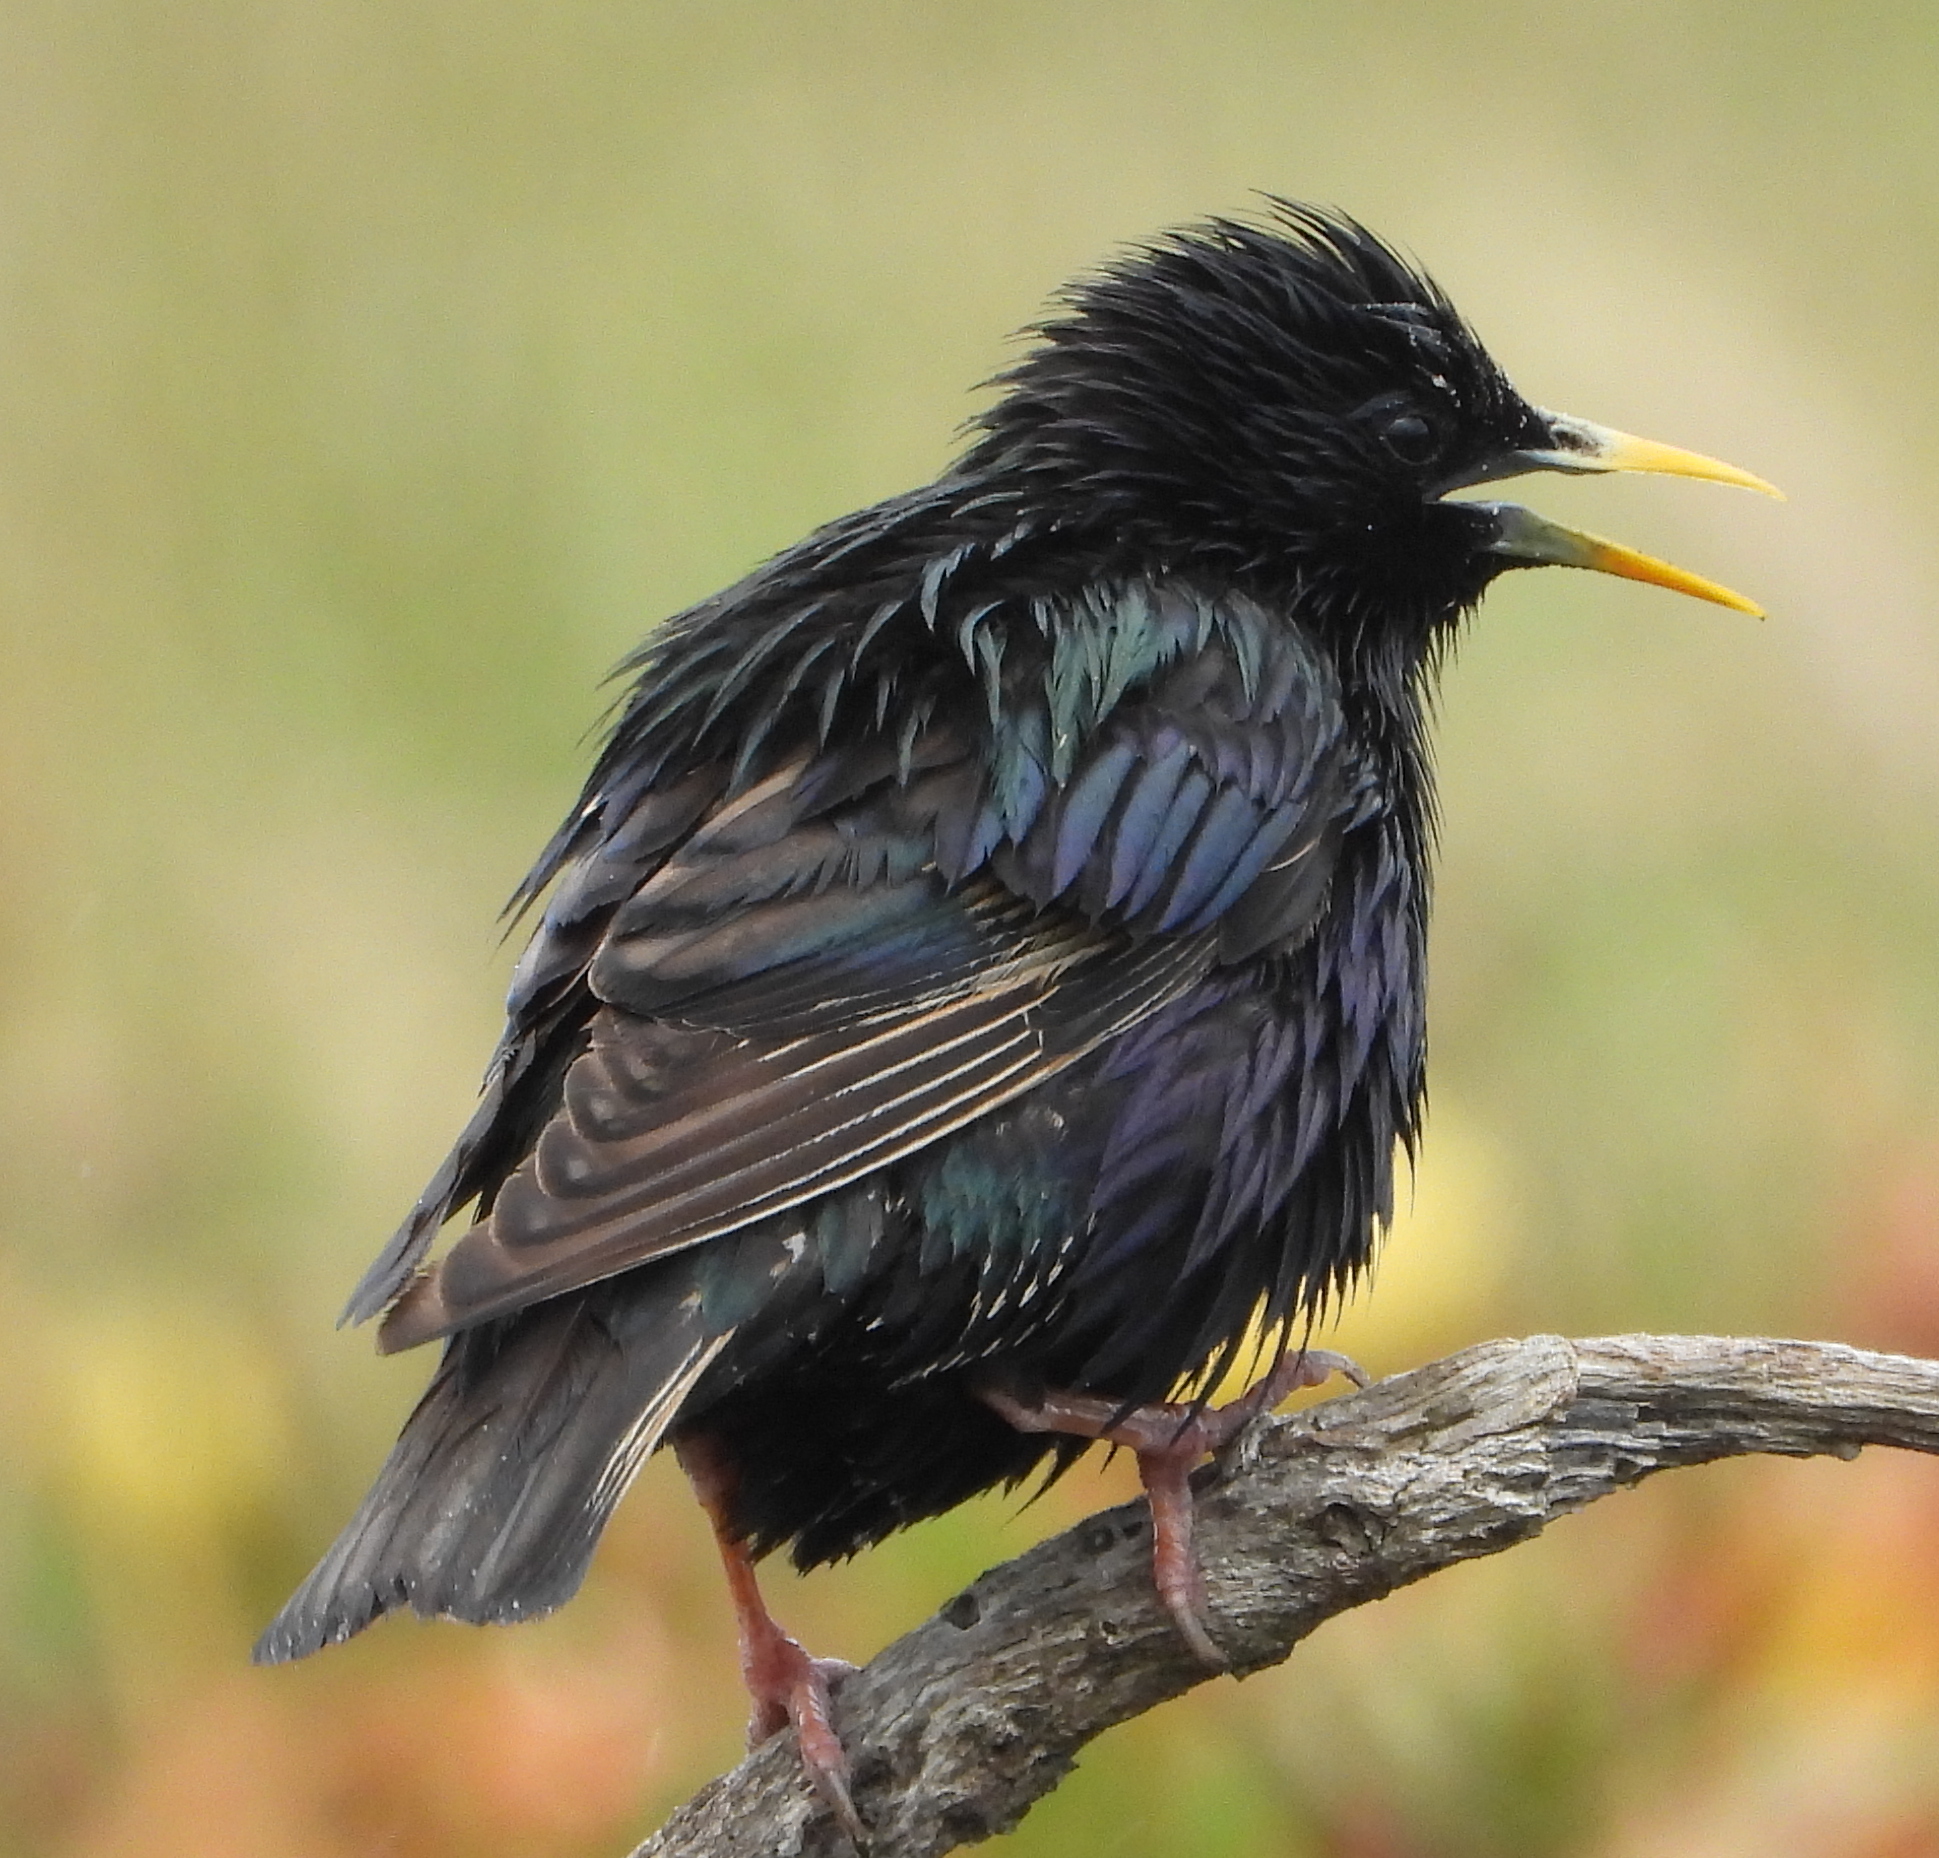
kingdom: Animalia
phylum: Chordata
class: Aves
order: Passeriformes
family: Sturnidae
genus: Sturnus
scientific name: Sturnus vulgaris
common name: Common starling
